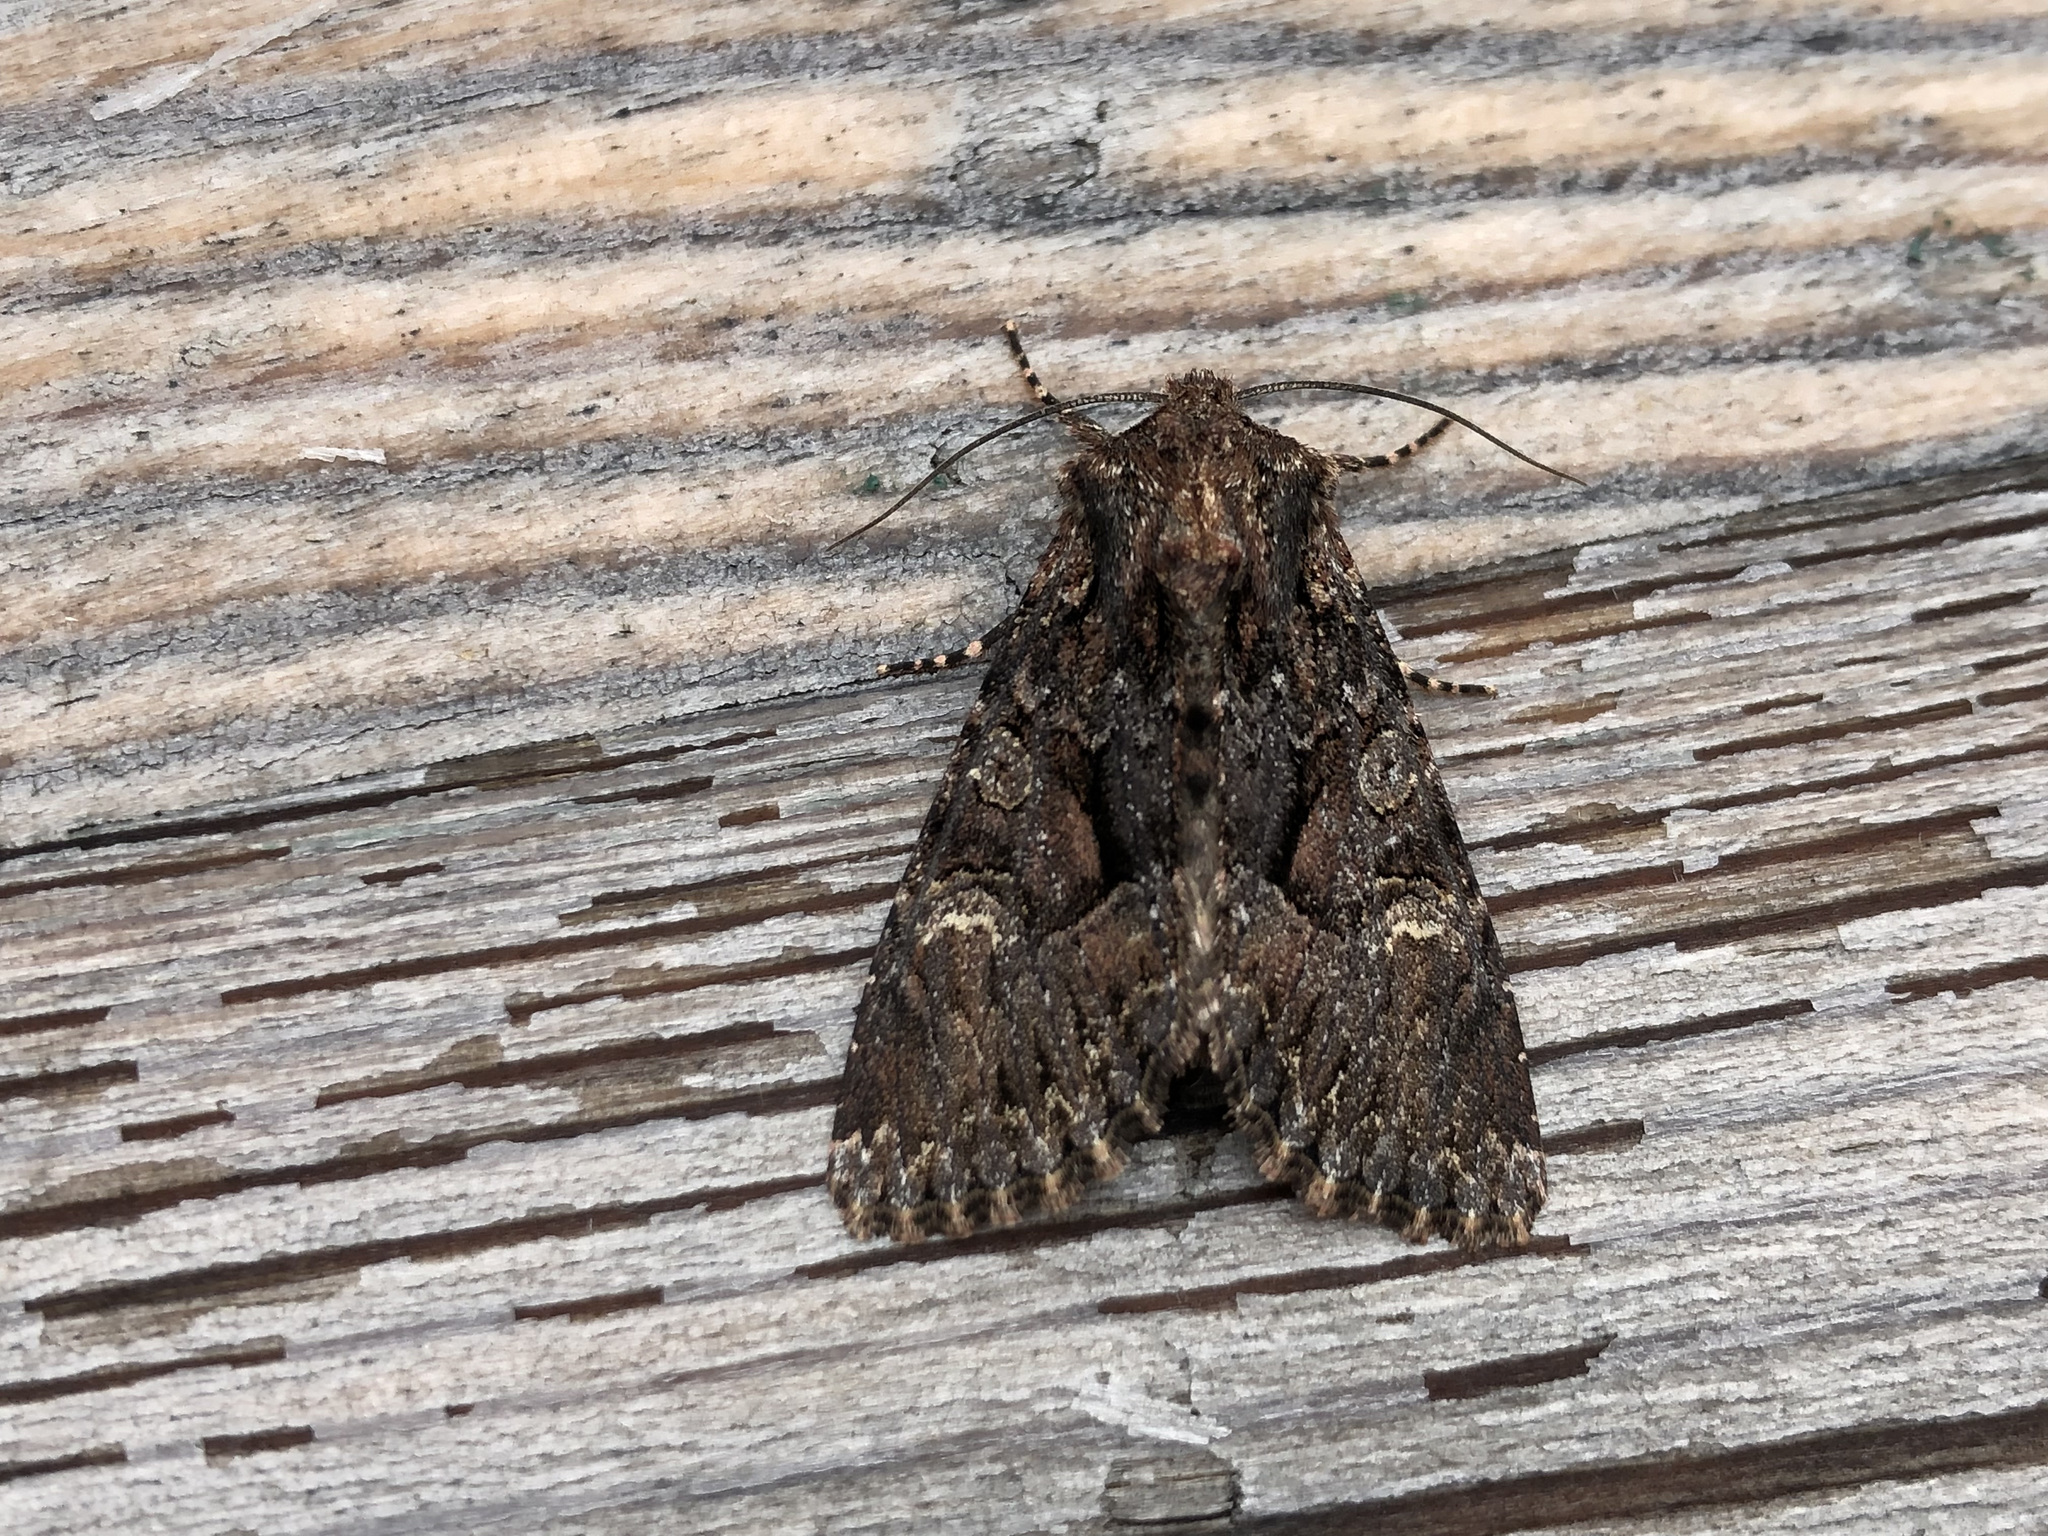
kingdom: Animalia
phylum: Arthropoda
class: Insecta
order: Lepidoptera
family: Noctuidae
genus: Mniotype
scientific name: Mniotype adusta
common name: Dark brocade
